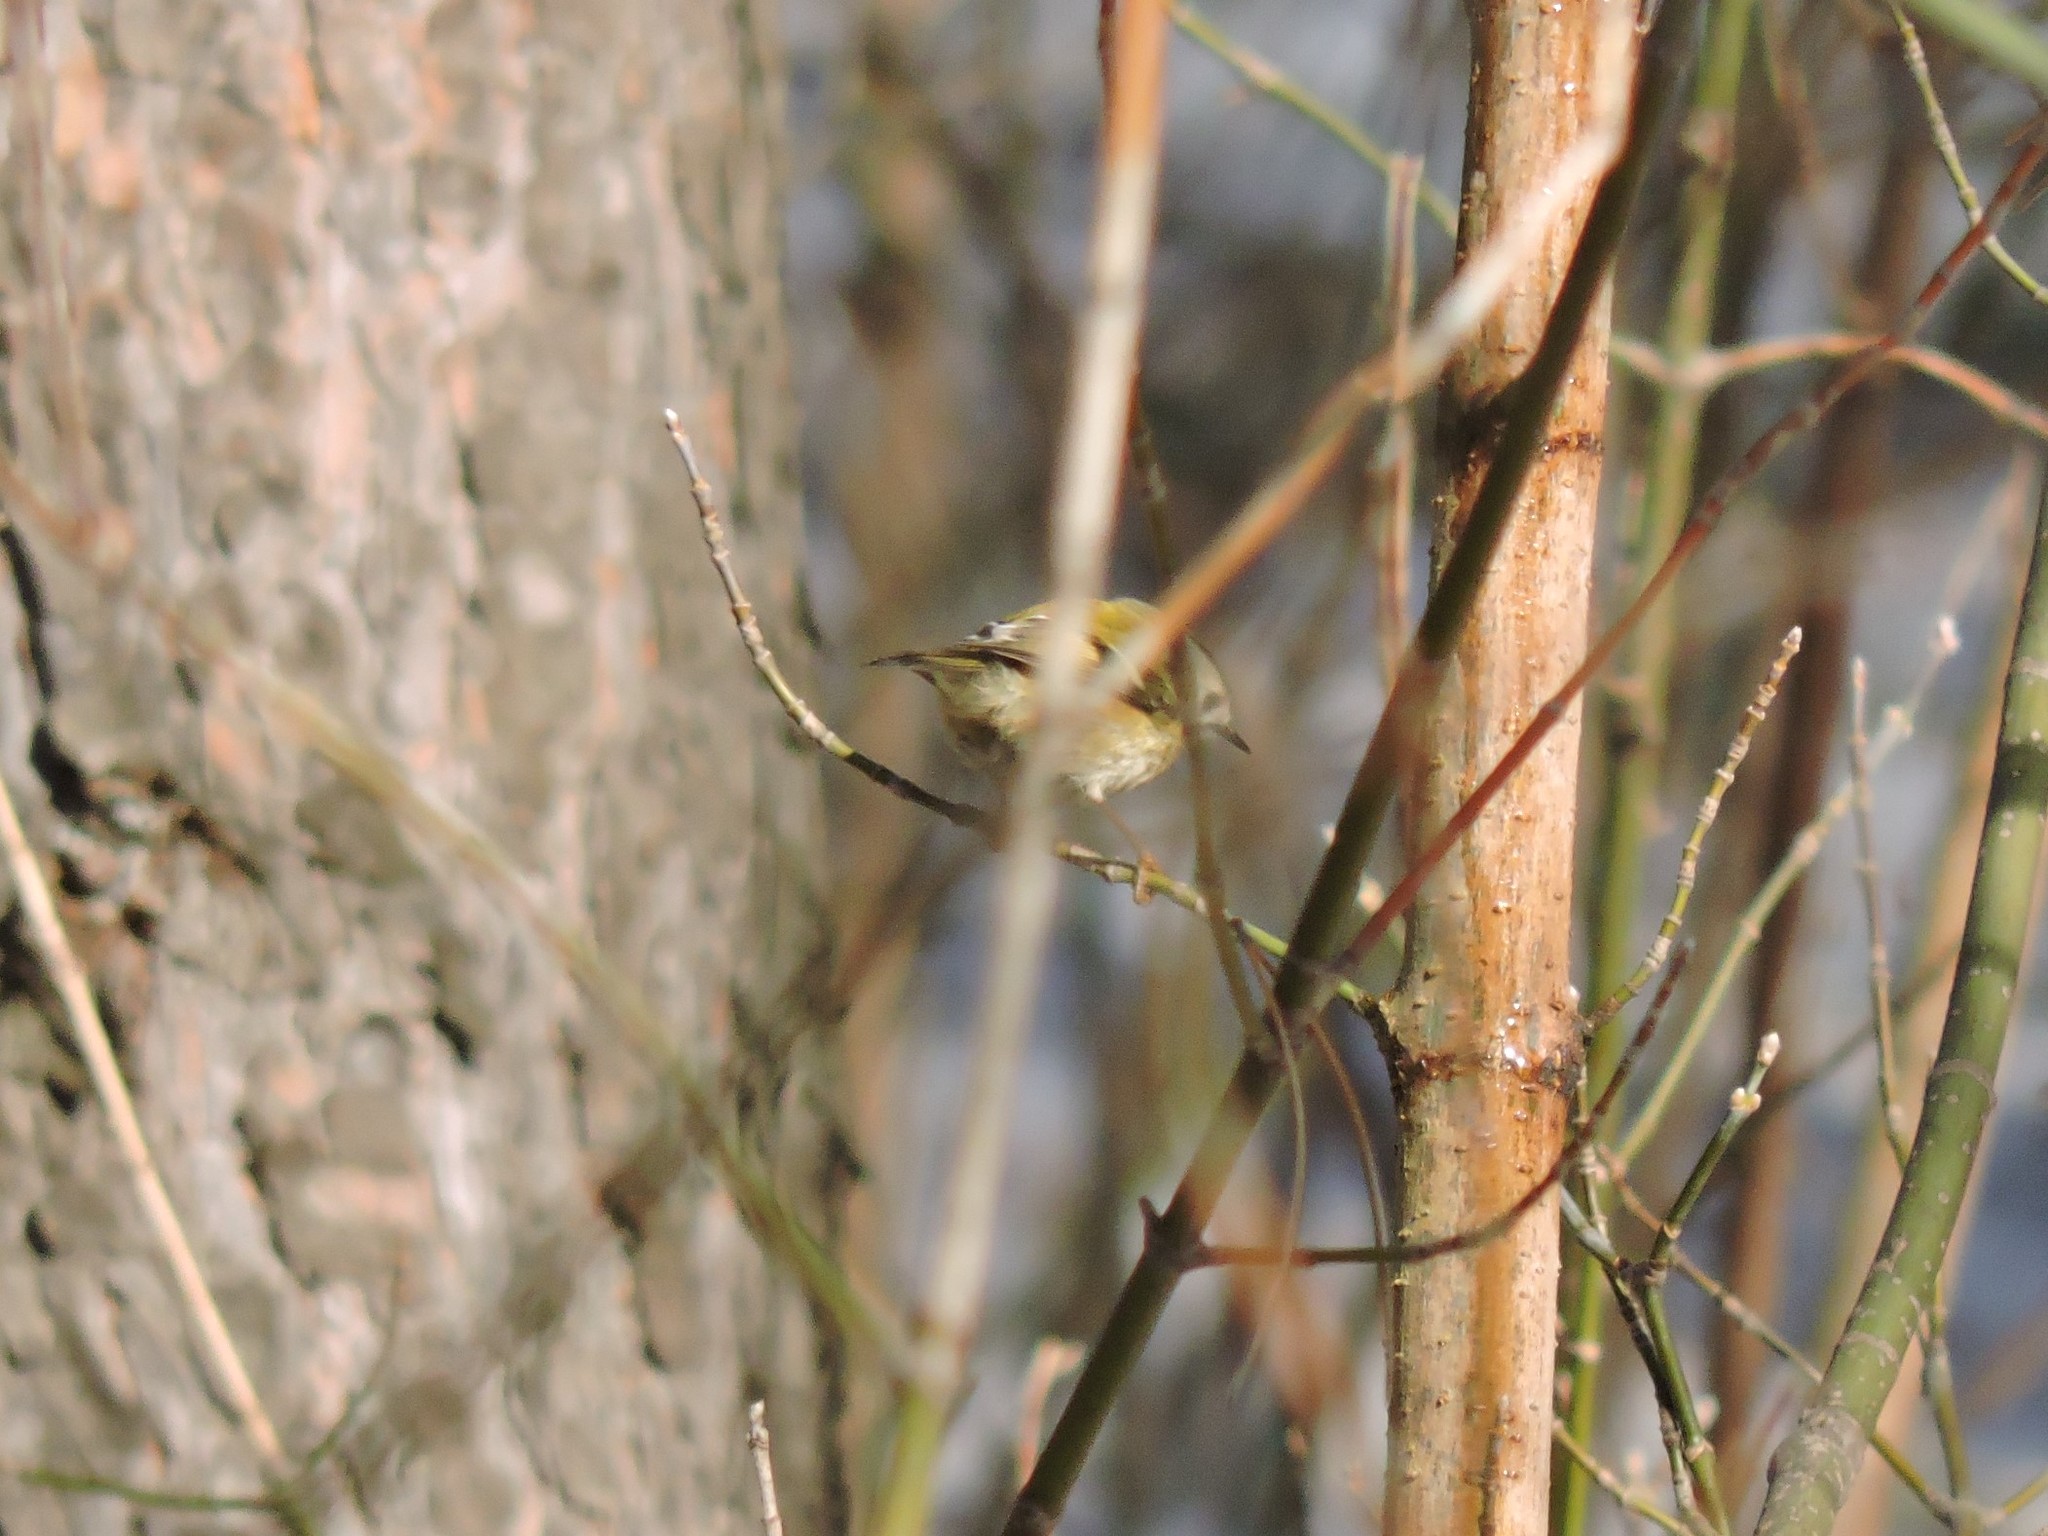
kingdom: Animalia
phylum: Chordata
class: Aves
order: Passeriformes
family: Regulidae
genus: Regulus
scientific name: Regulus regulus
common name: Goldcrest
